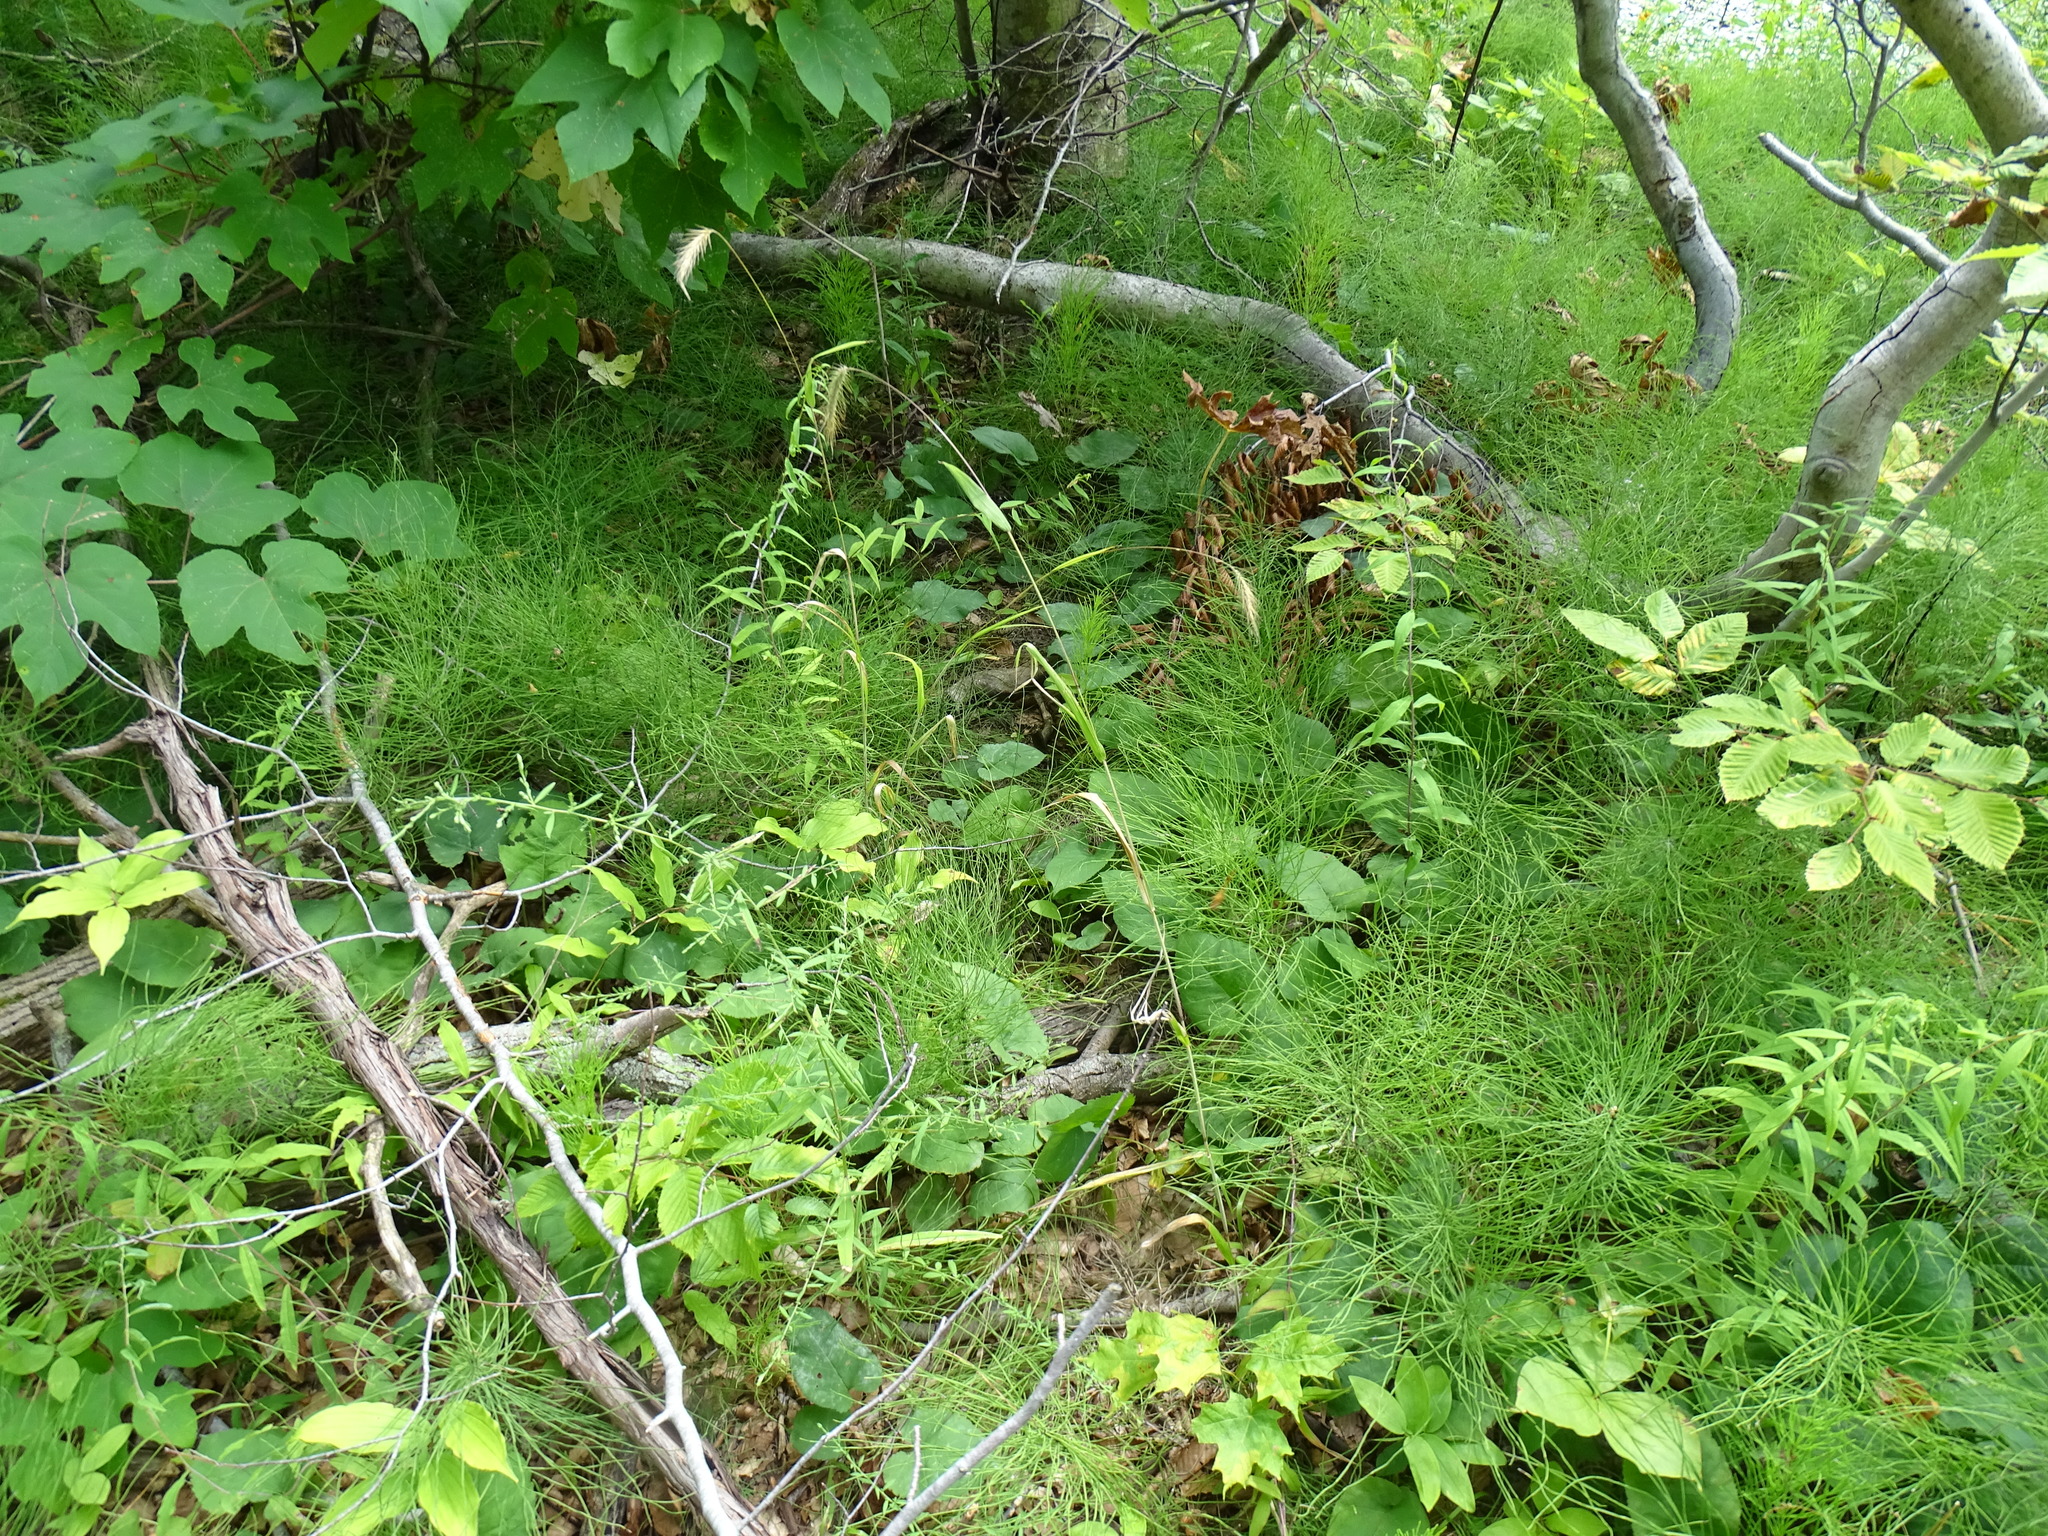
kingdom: Plantae
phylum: Tracheophyta
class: Liliopsida
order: Poales
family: Poaceae
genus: Elymus
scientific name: Elymus villosus
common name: Downy wild rye
